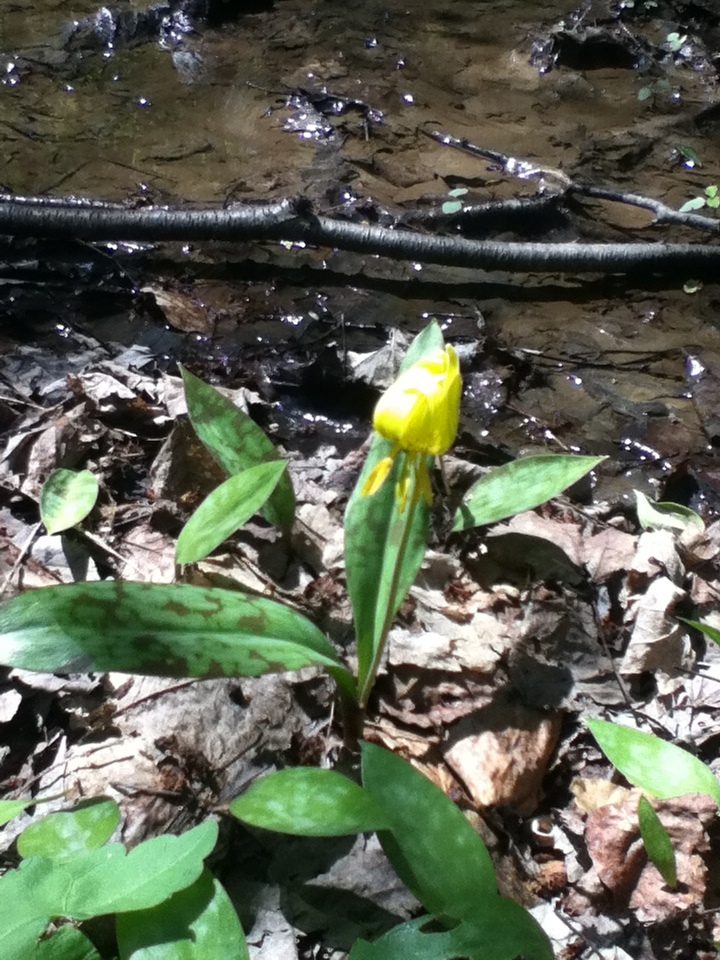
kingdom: Plantae
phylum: Tracheophyta
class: Liliopsida
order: Liliales
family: Liliaceae
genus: Erythronium
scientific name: Erythronium americanum
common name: Yellow adder's-tongue
